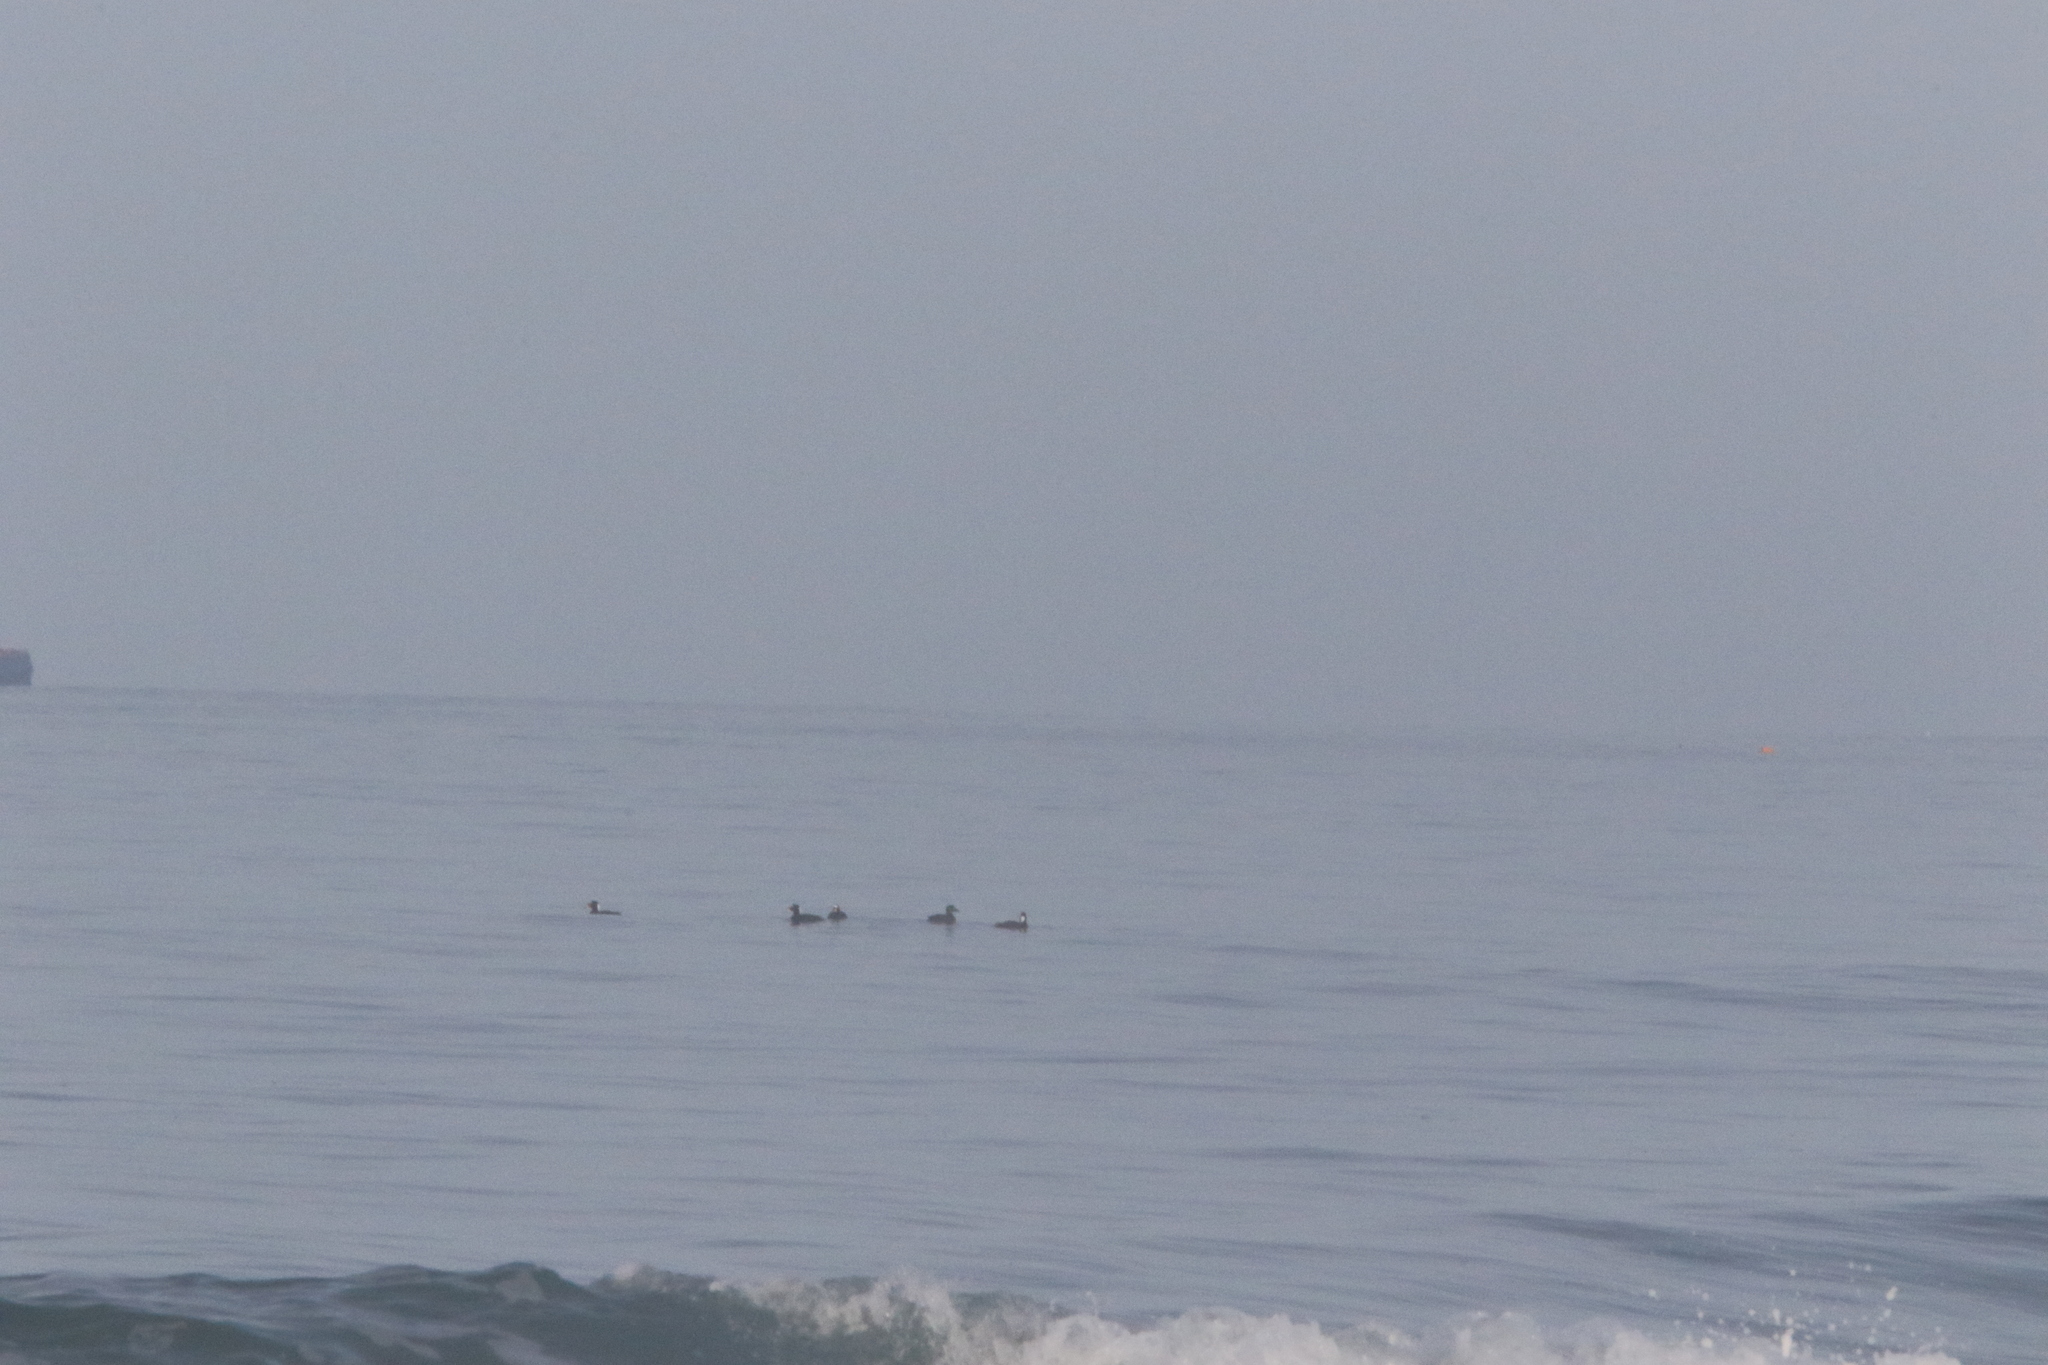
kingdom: Animalia
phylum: Chordata
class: Aves
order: Anseriformes
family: Anatidae
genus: Melanitta
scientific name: Melanitta perspicillata
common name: Surf scoter
